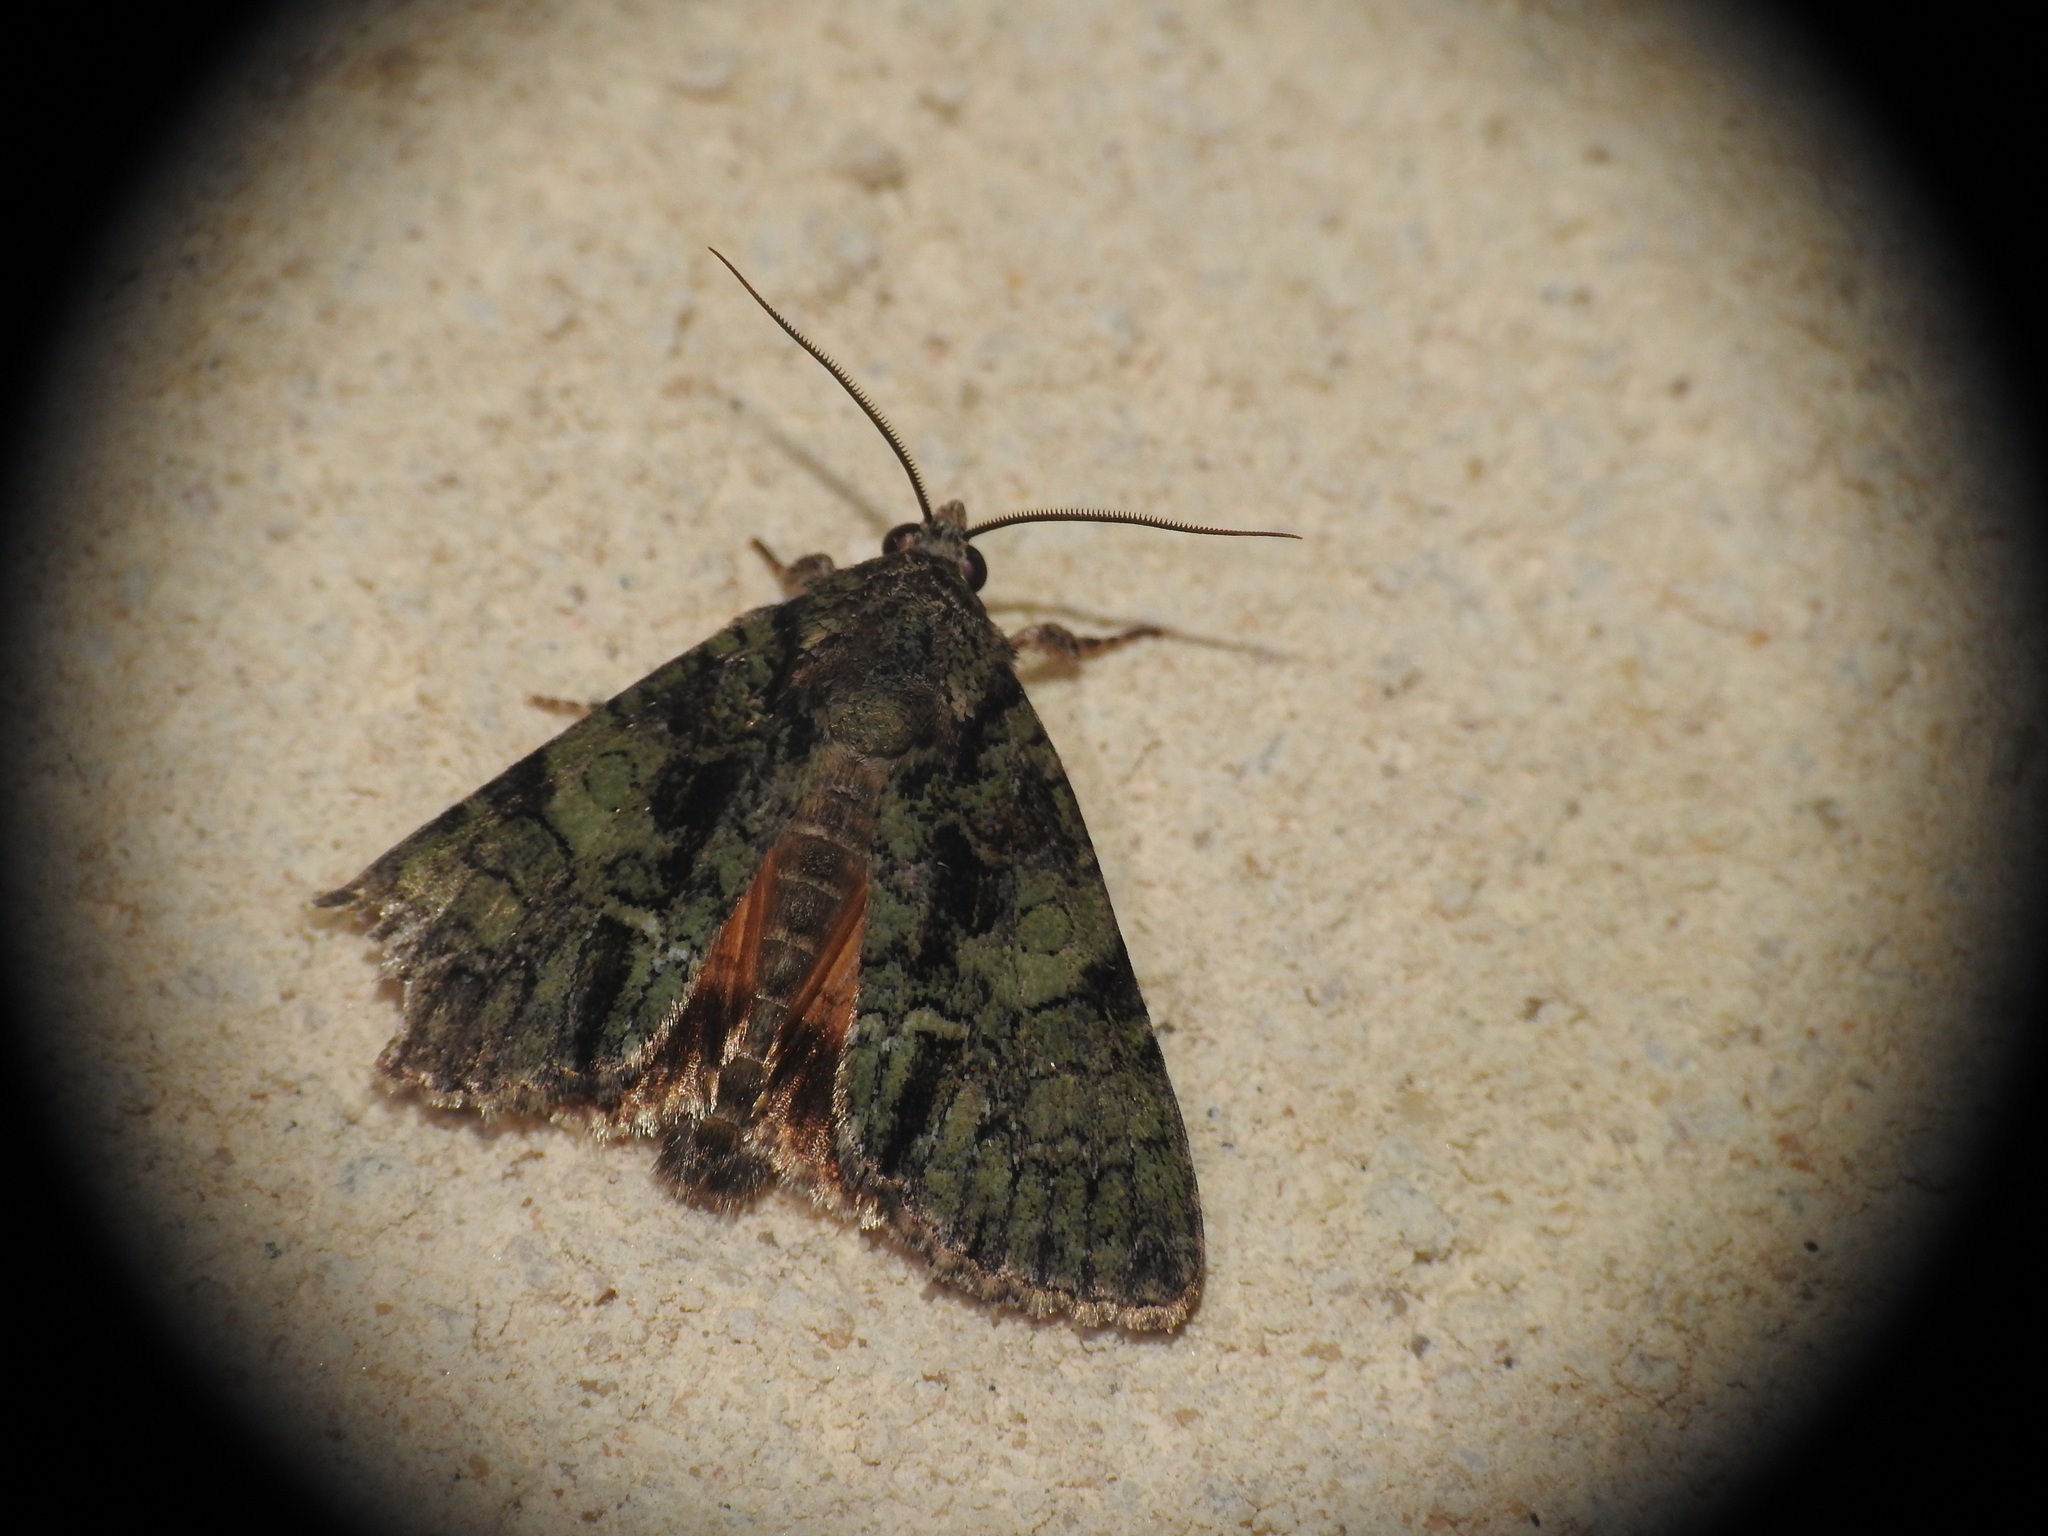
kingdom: Animalia
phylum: Arthropoda
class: Insecta
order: Lepidoptera
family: Noctuidae
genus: Polyphaenis
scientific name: Polyphaenis sericata
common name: Guernsey underwing
